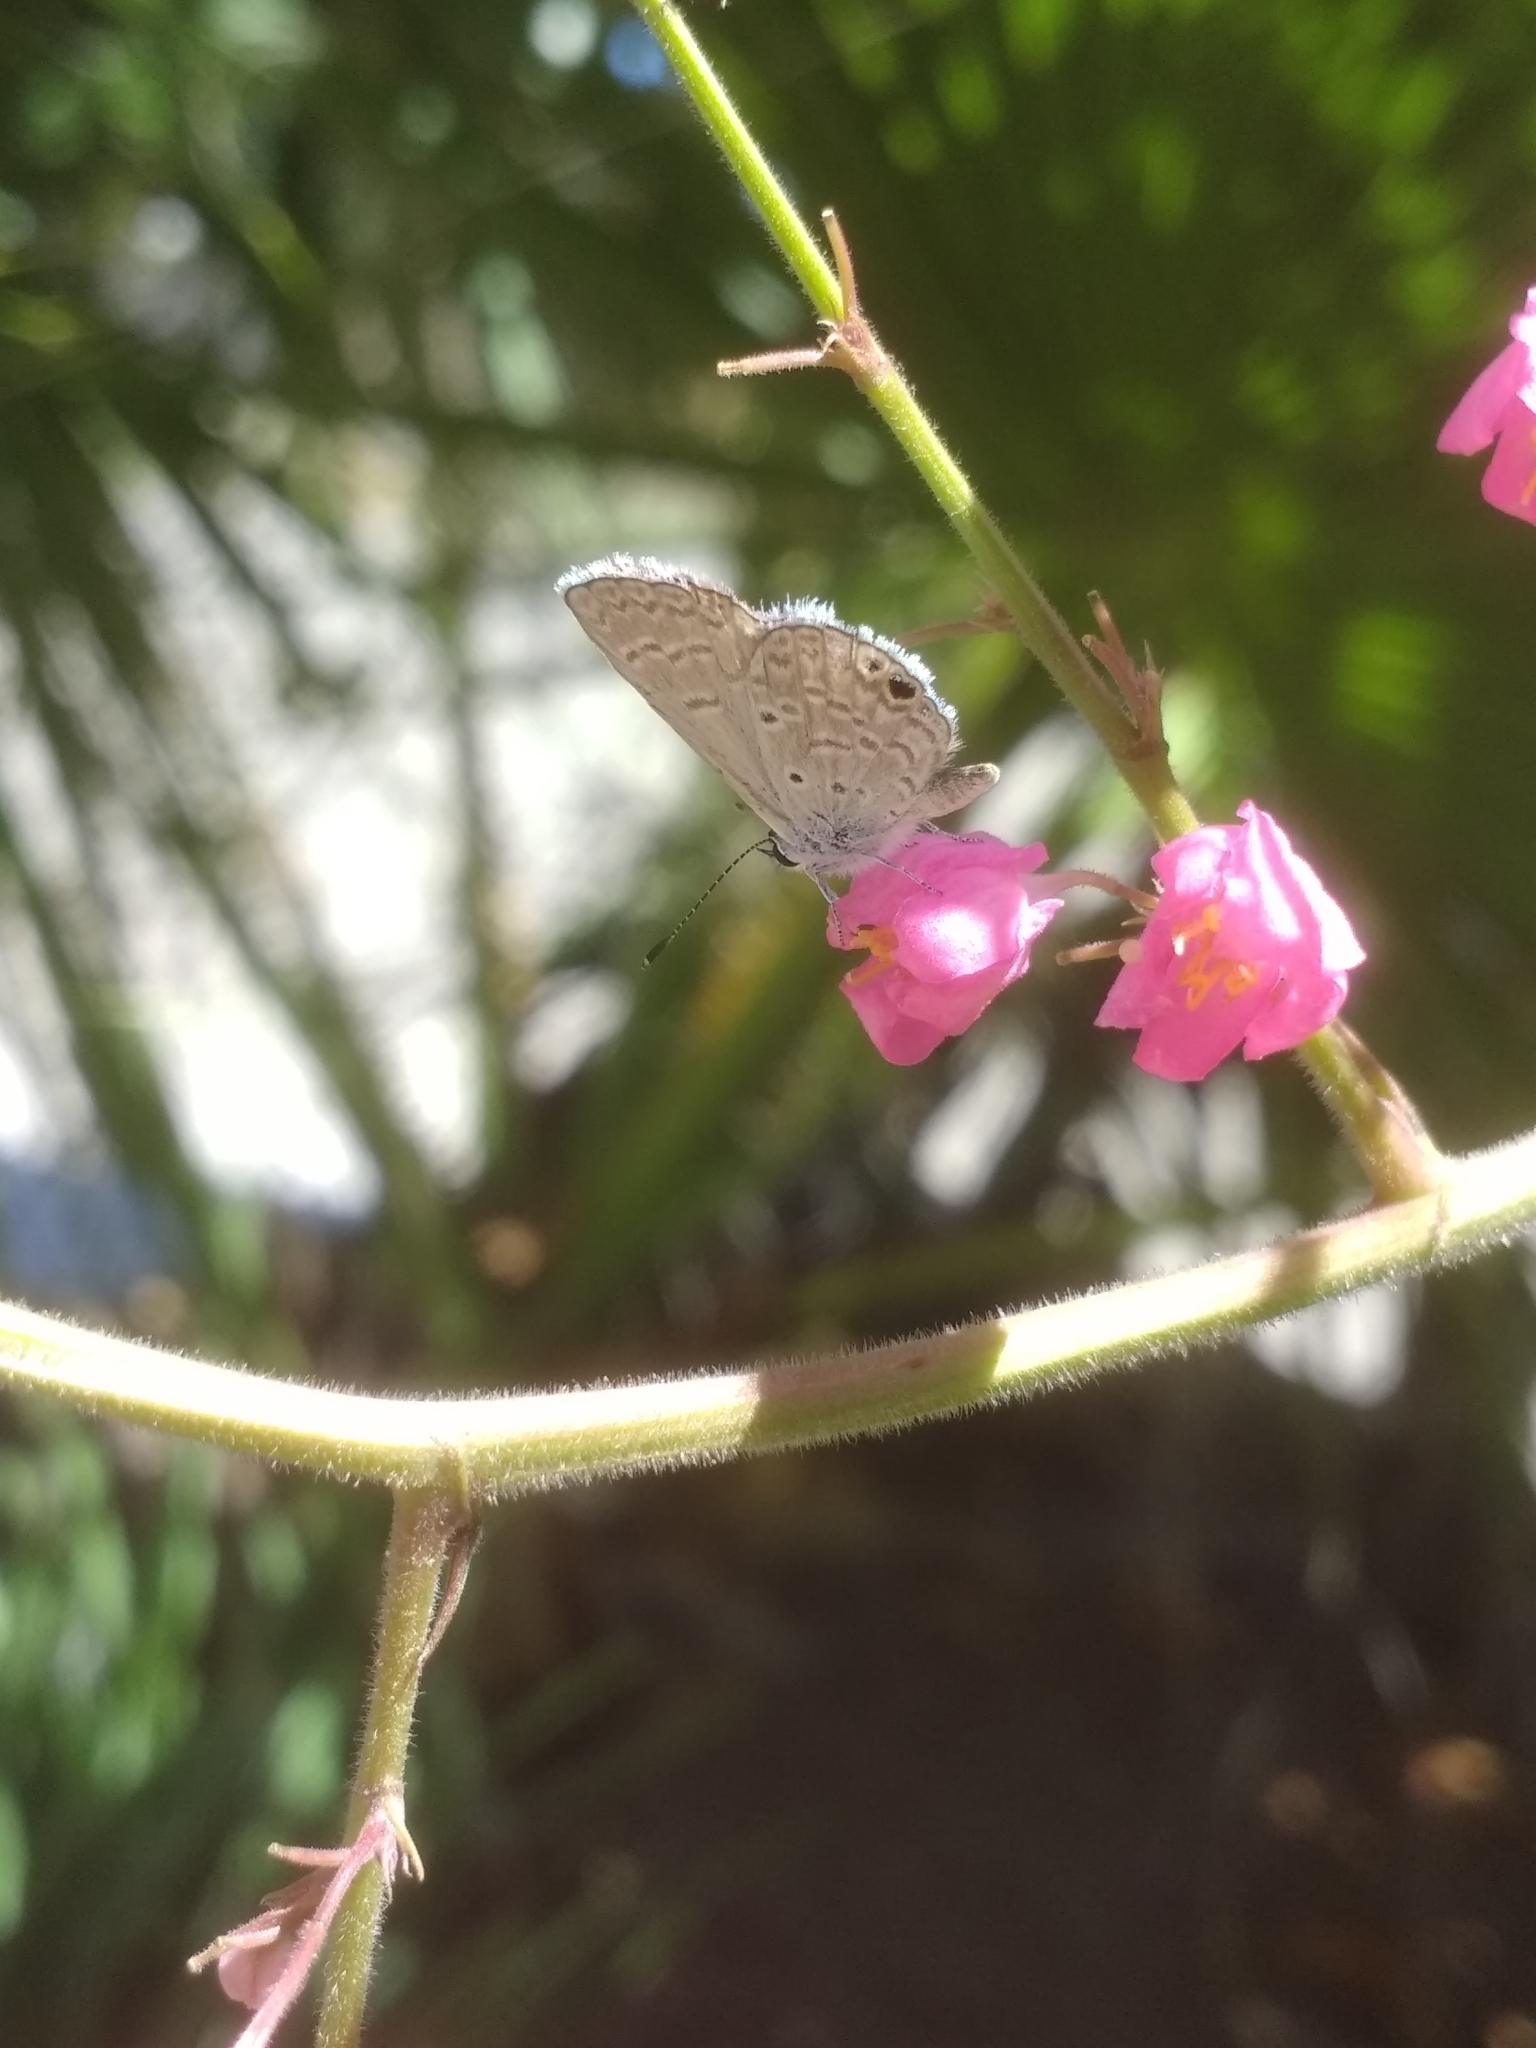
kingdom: Animalia
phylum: Arthropoda
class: Insecta
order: Lepidoptera
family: Lycaenidae
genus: Echinargus
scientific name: Echinargus isola
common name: Reakirt's blue
